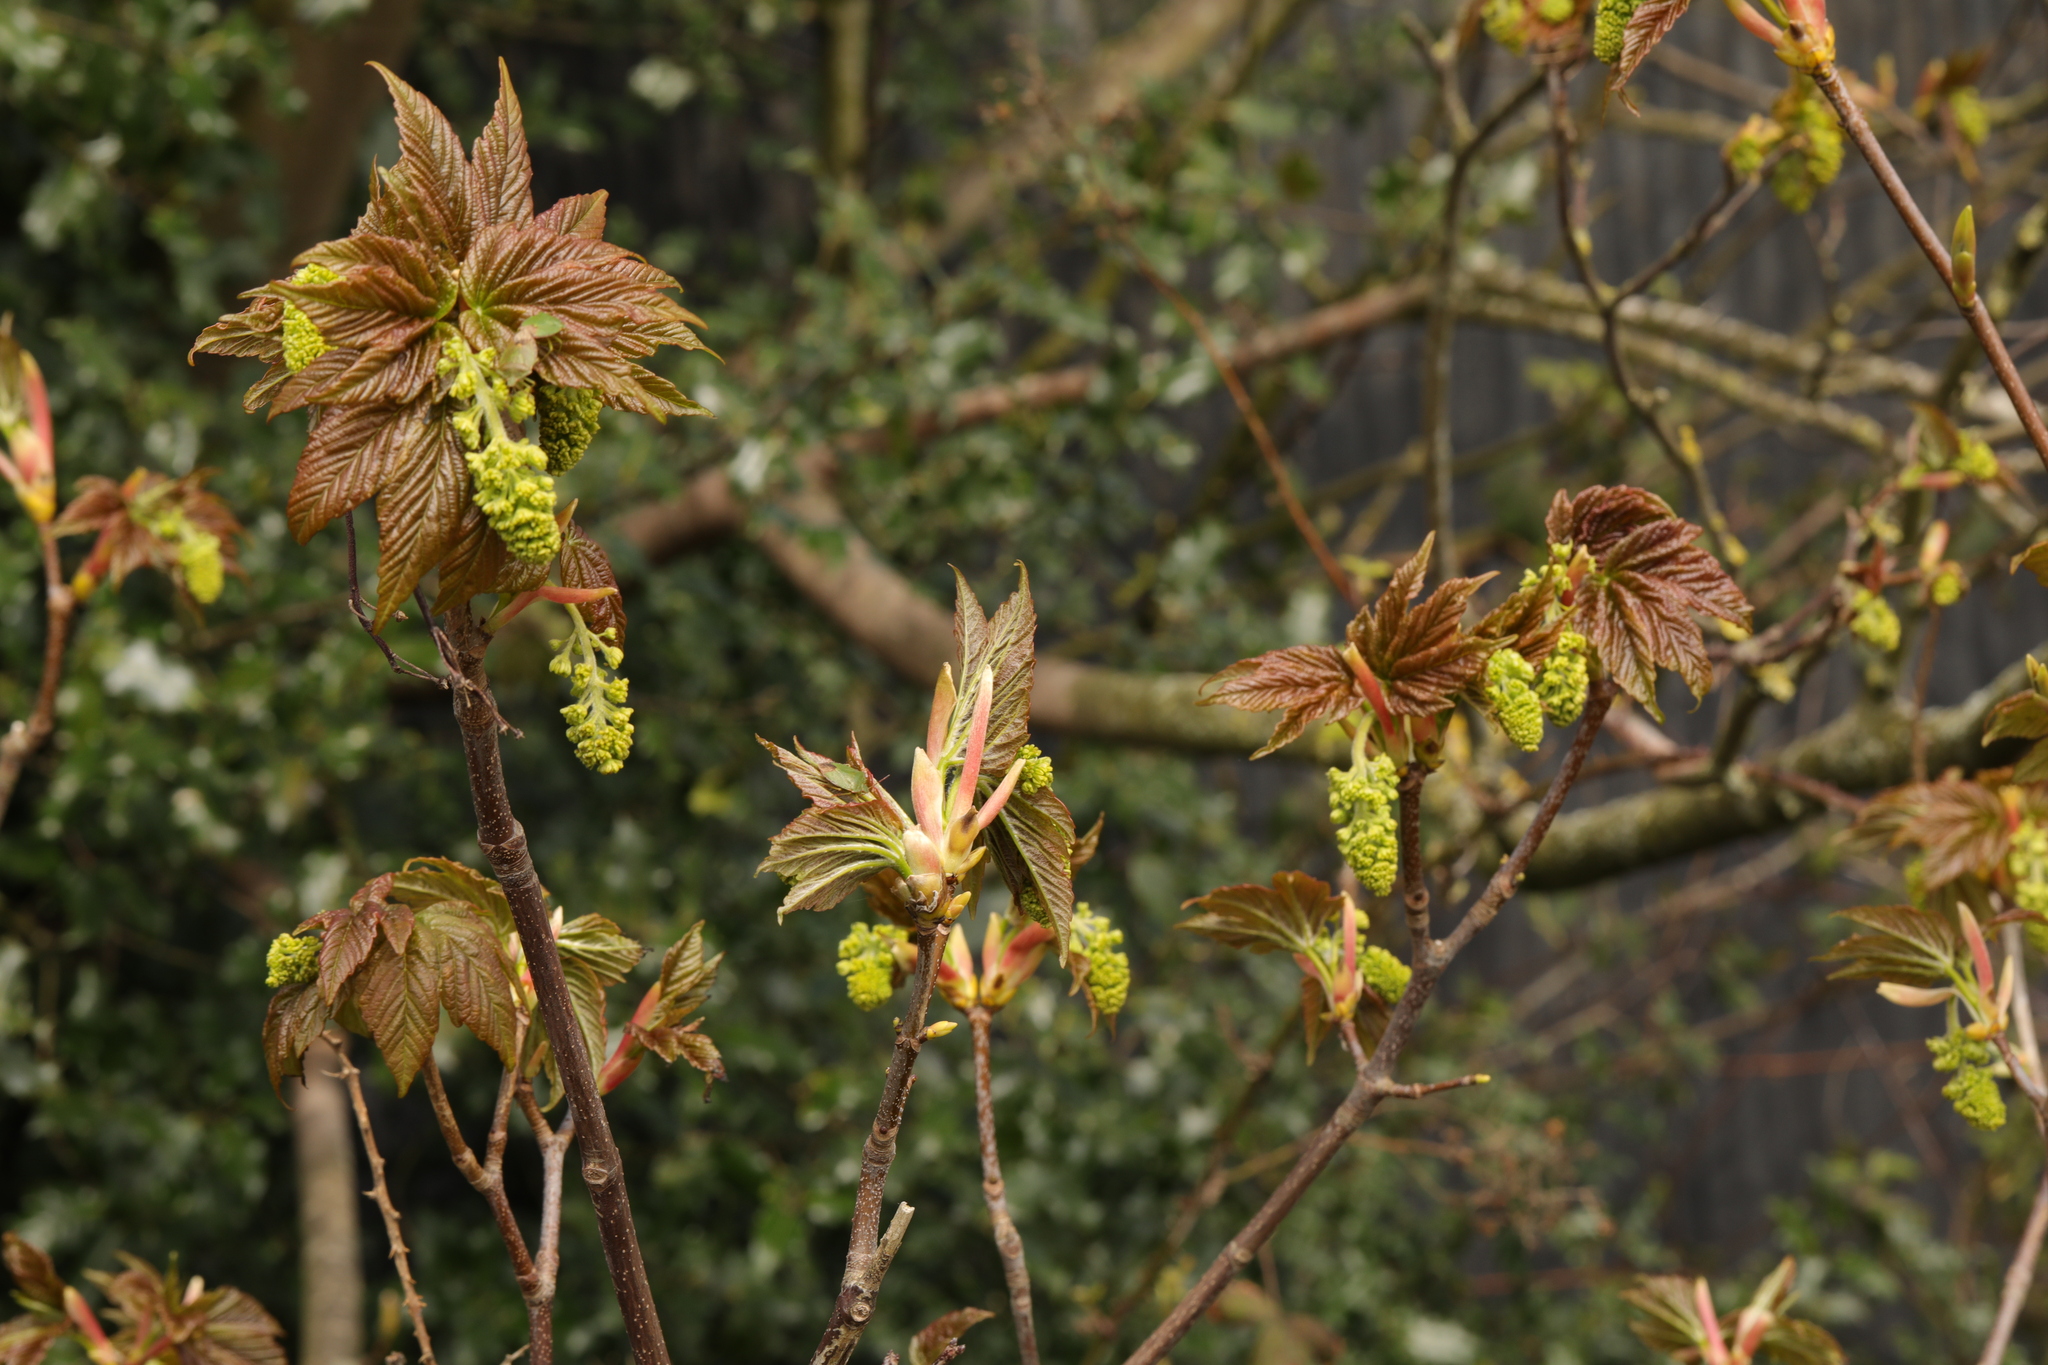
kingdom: Plantae
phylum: Tracheophyta
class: Magnoliopsida
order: Sapindales
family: Sapindaceae
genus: Acer
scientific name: Acer pseudoplatanus
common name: Sycamore
